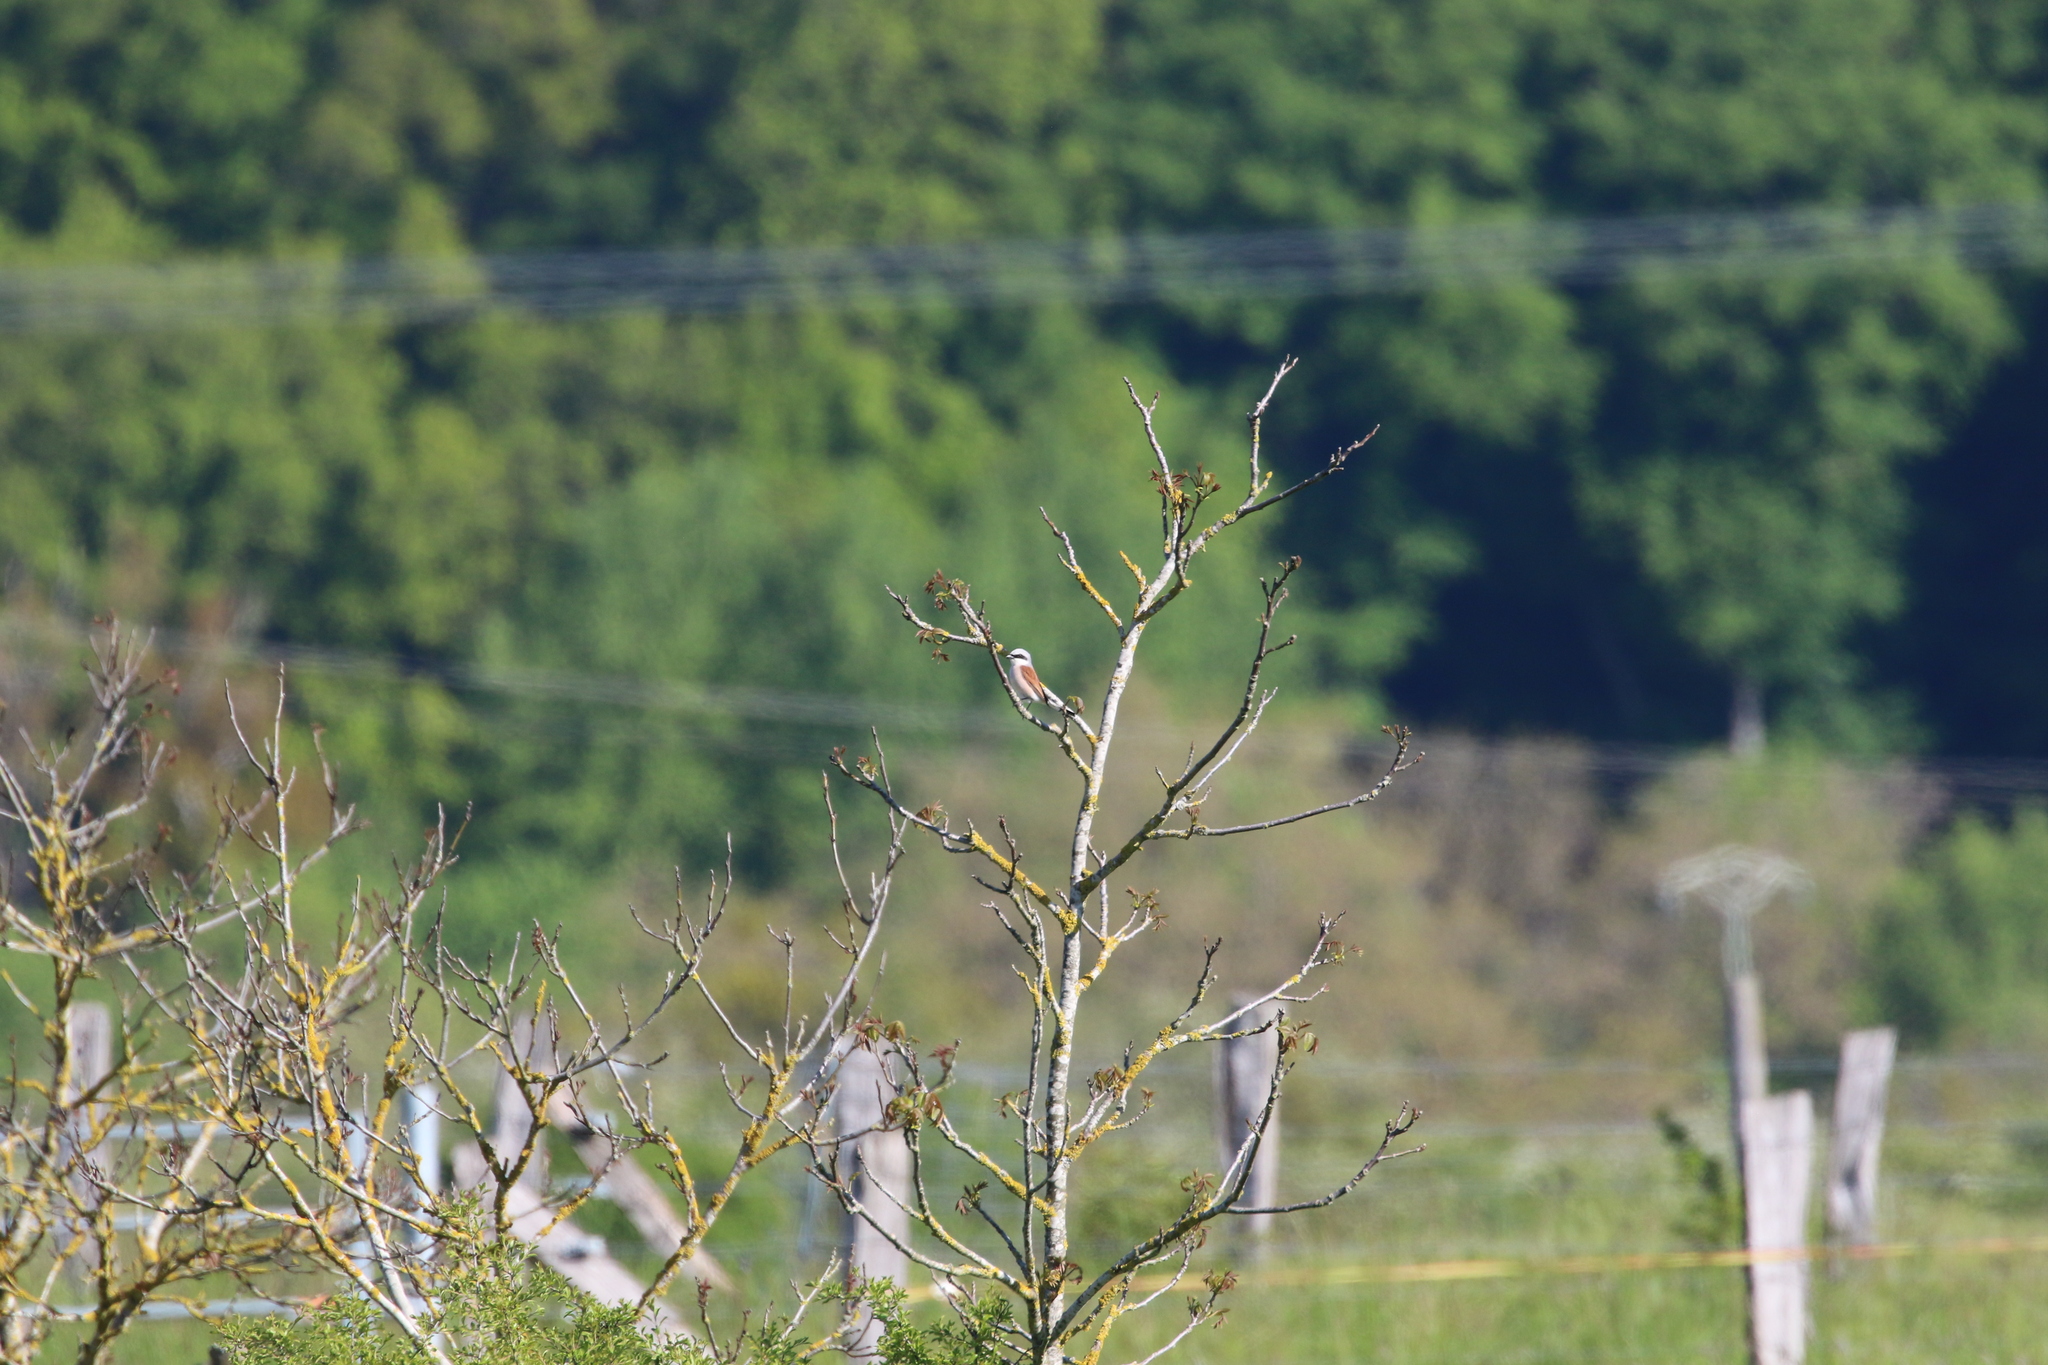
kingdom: Animalia
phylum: Chordata
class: Aves
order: Passeriformes
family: Laniidae
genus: Lanius
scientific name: Lanius collurio
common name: Red-backed shrike
